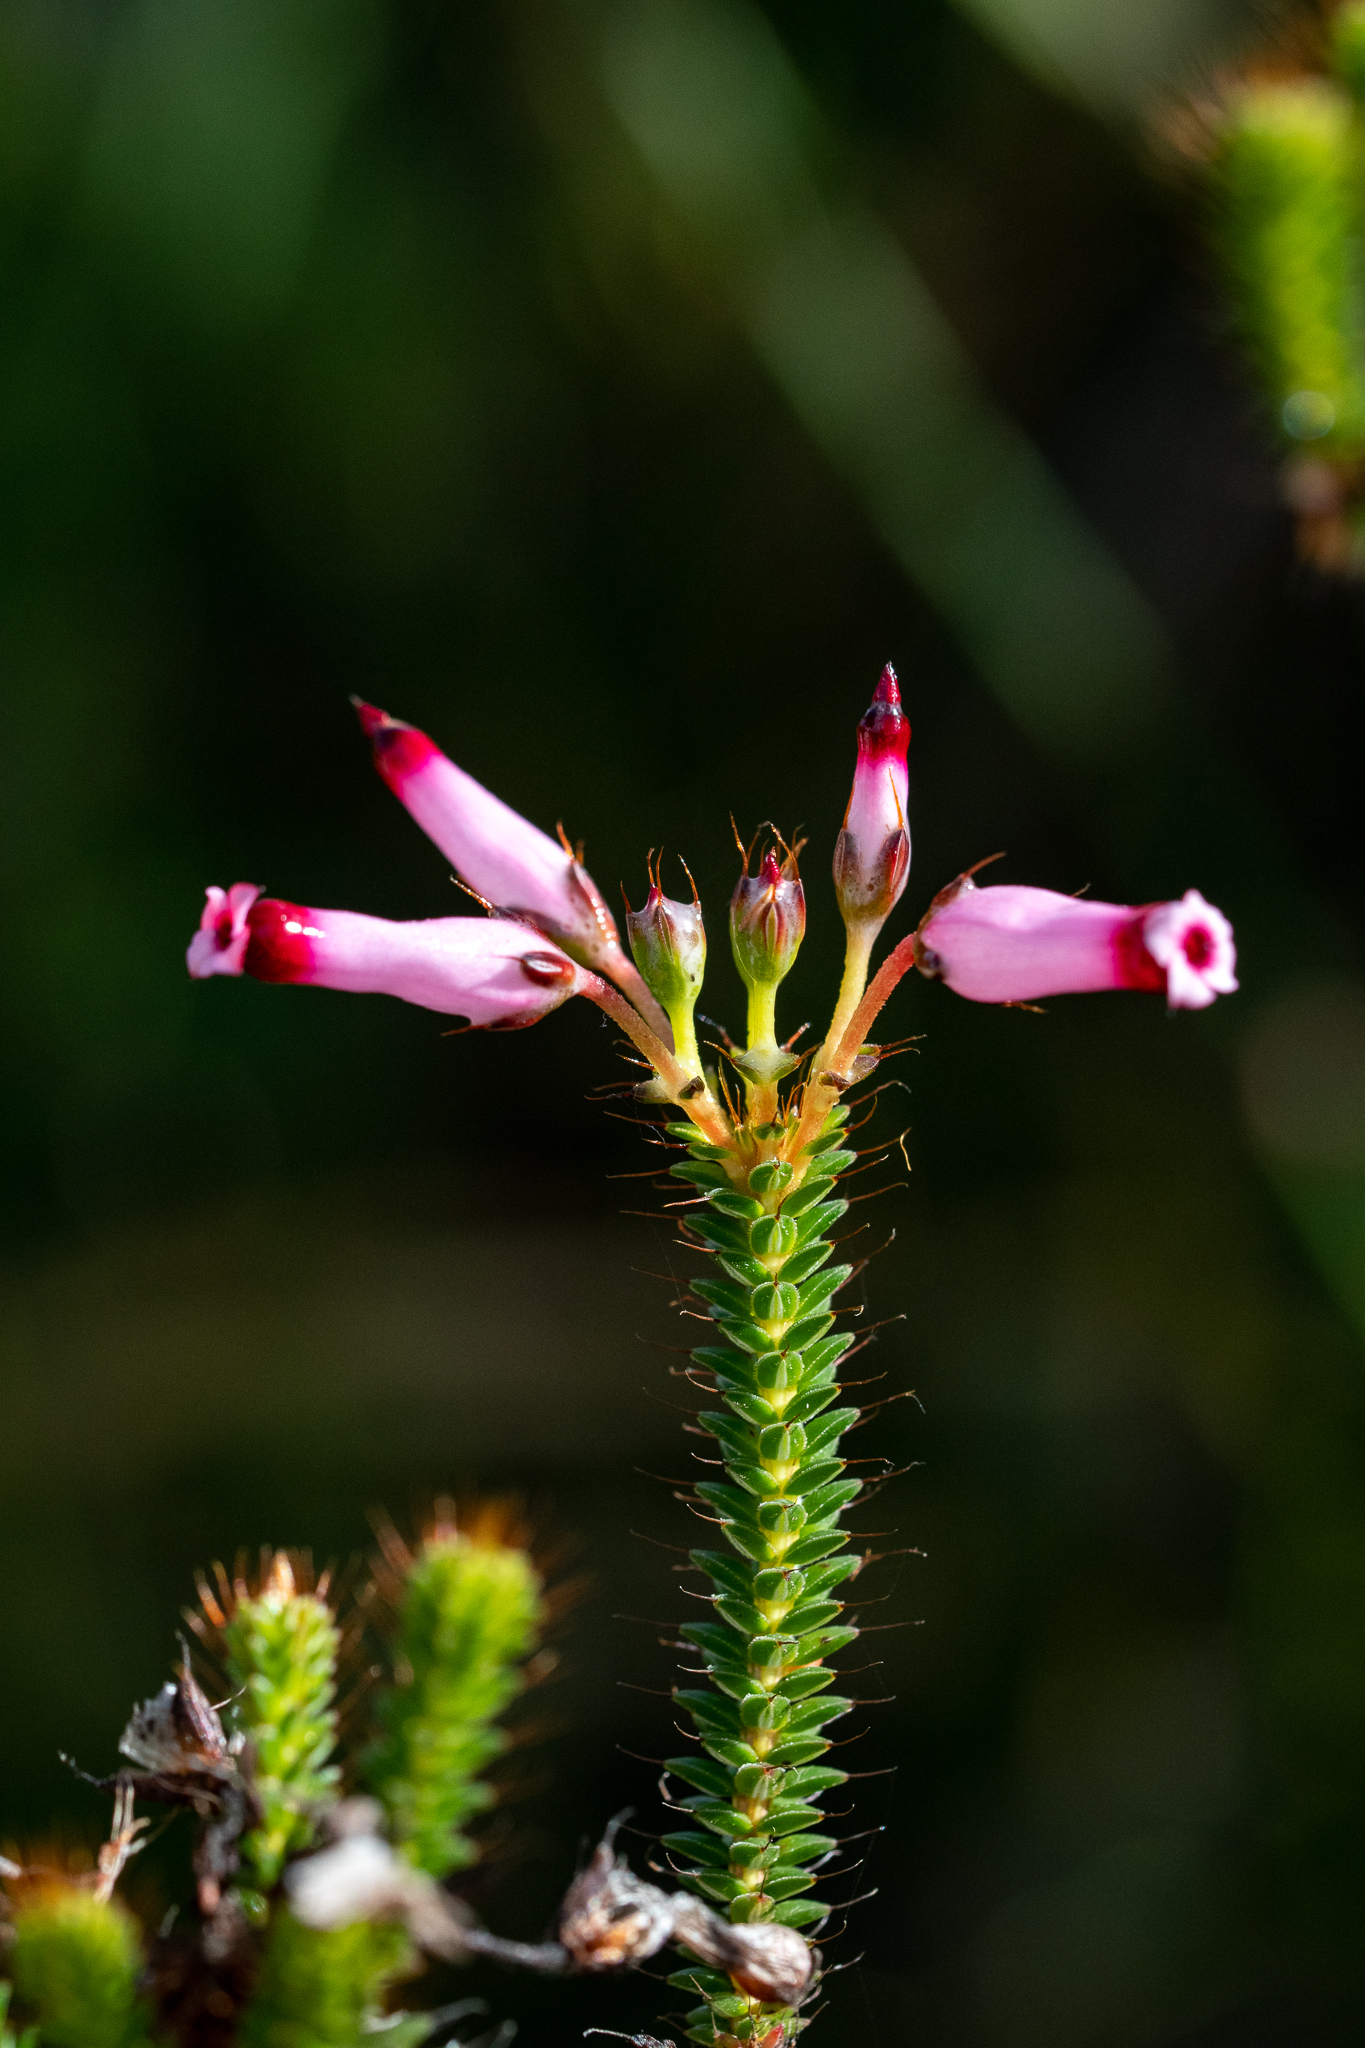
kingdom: Plantae
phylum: Tracheophyta
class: Magnoliopsida
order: Ericales
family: Ericaceae
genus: Erica
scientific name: Erica retorta
